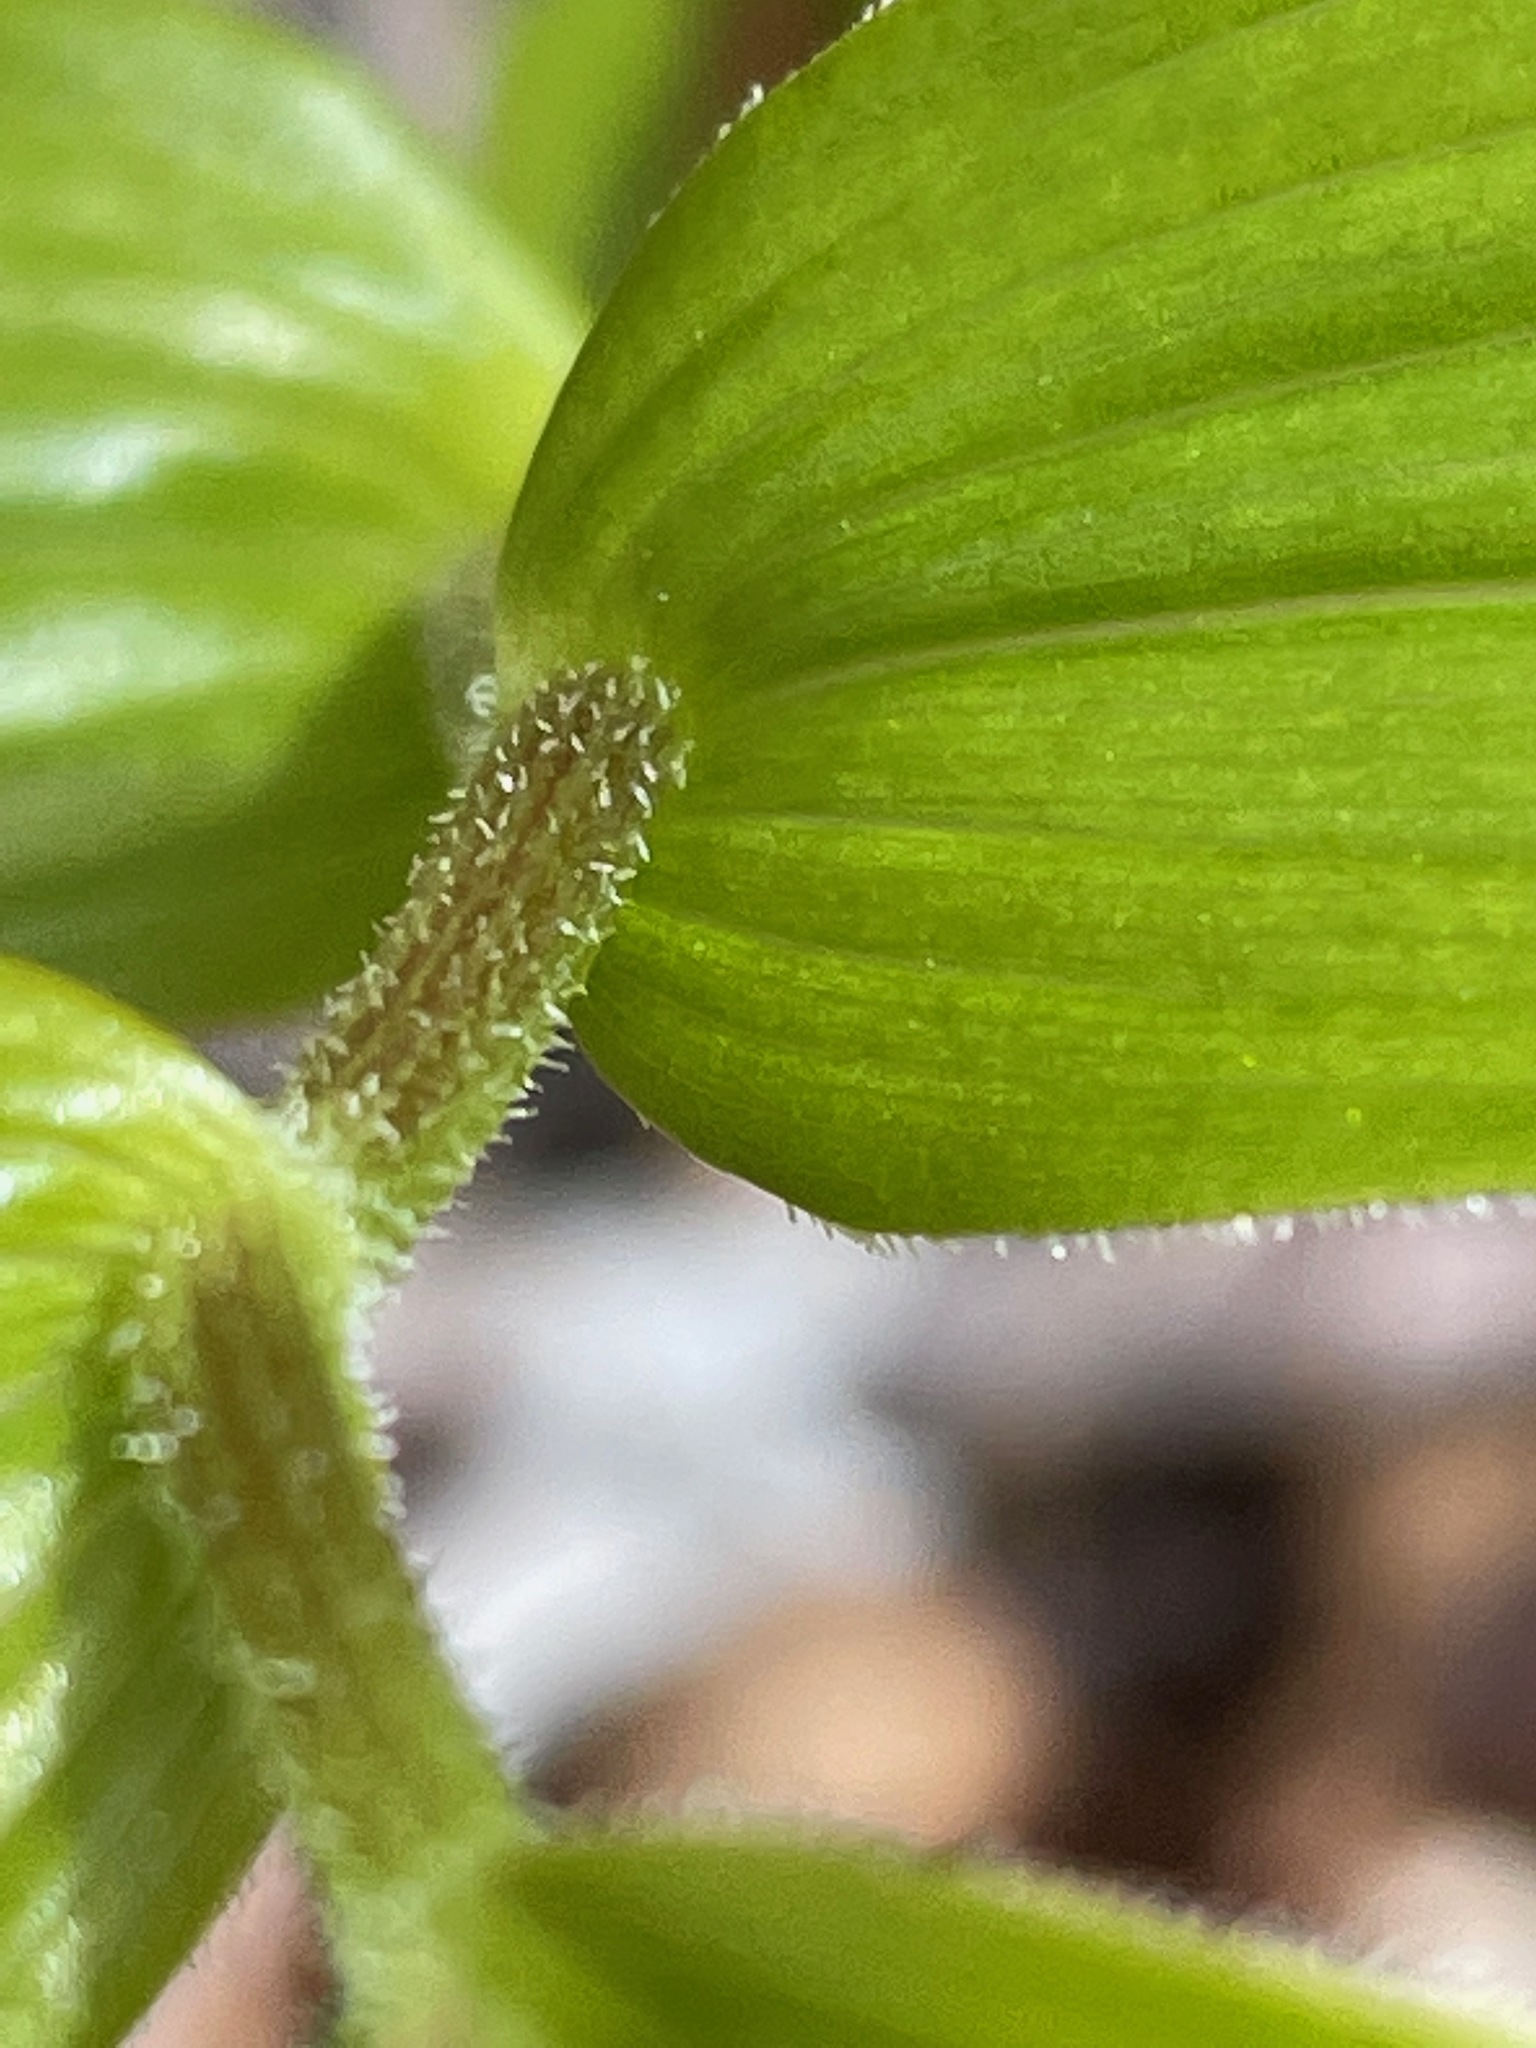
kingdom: Plantae
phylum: Tracheophyta
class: Liliopsida
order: Liliales
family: Liliaceae
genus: Streptopus
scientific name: Streptopus lanceolatus
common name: Rose mandarin
